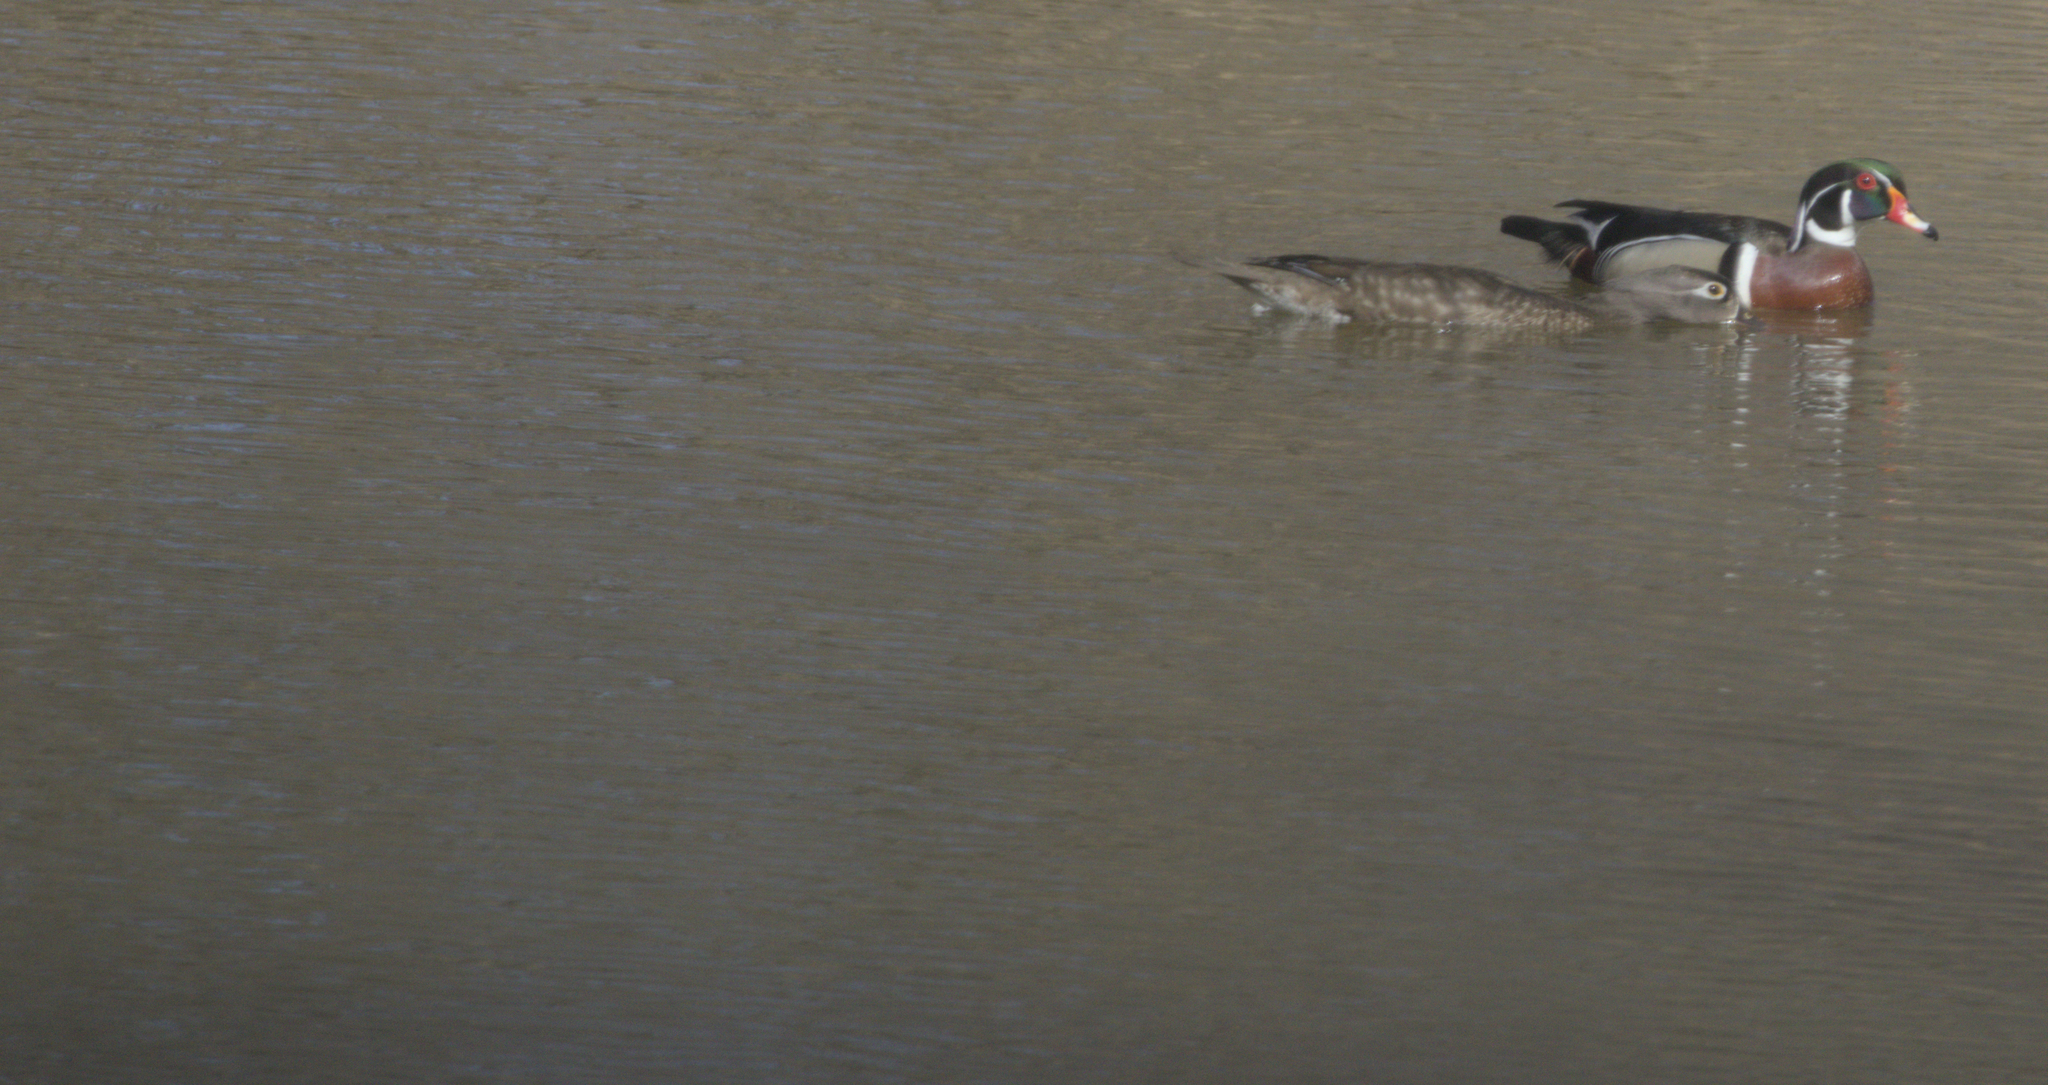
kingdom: Animalia
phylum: Chordata
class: Aves
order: Anseriformes
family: Anatidae
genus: Aix
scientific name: Aix sponsa
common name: Wood duck
